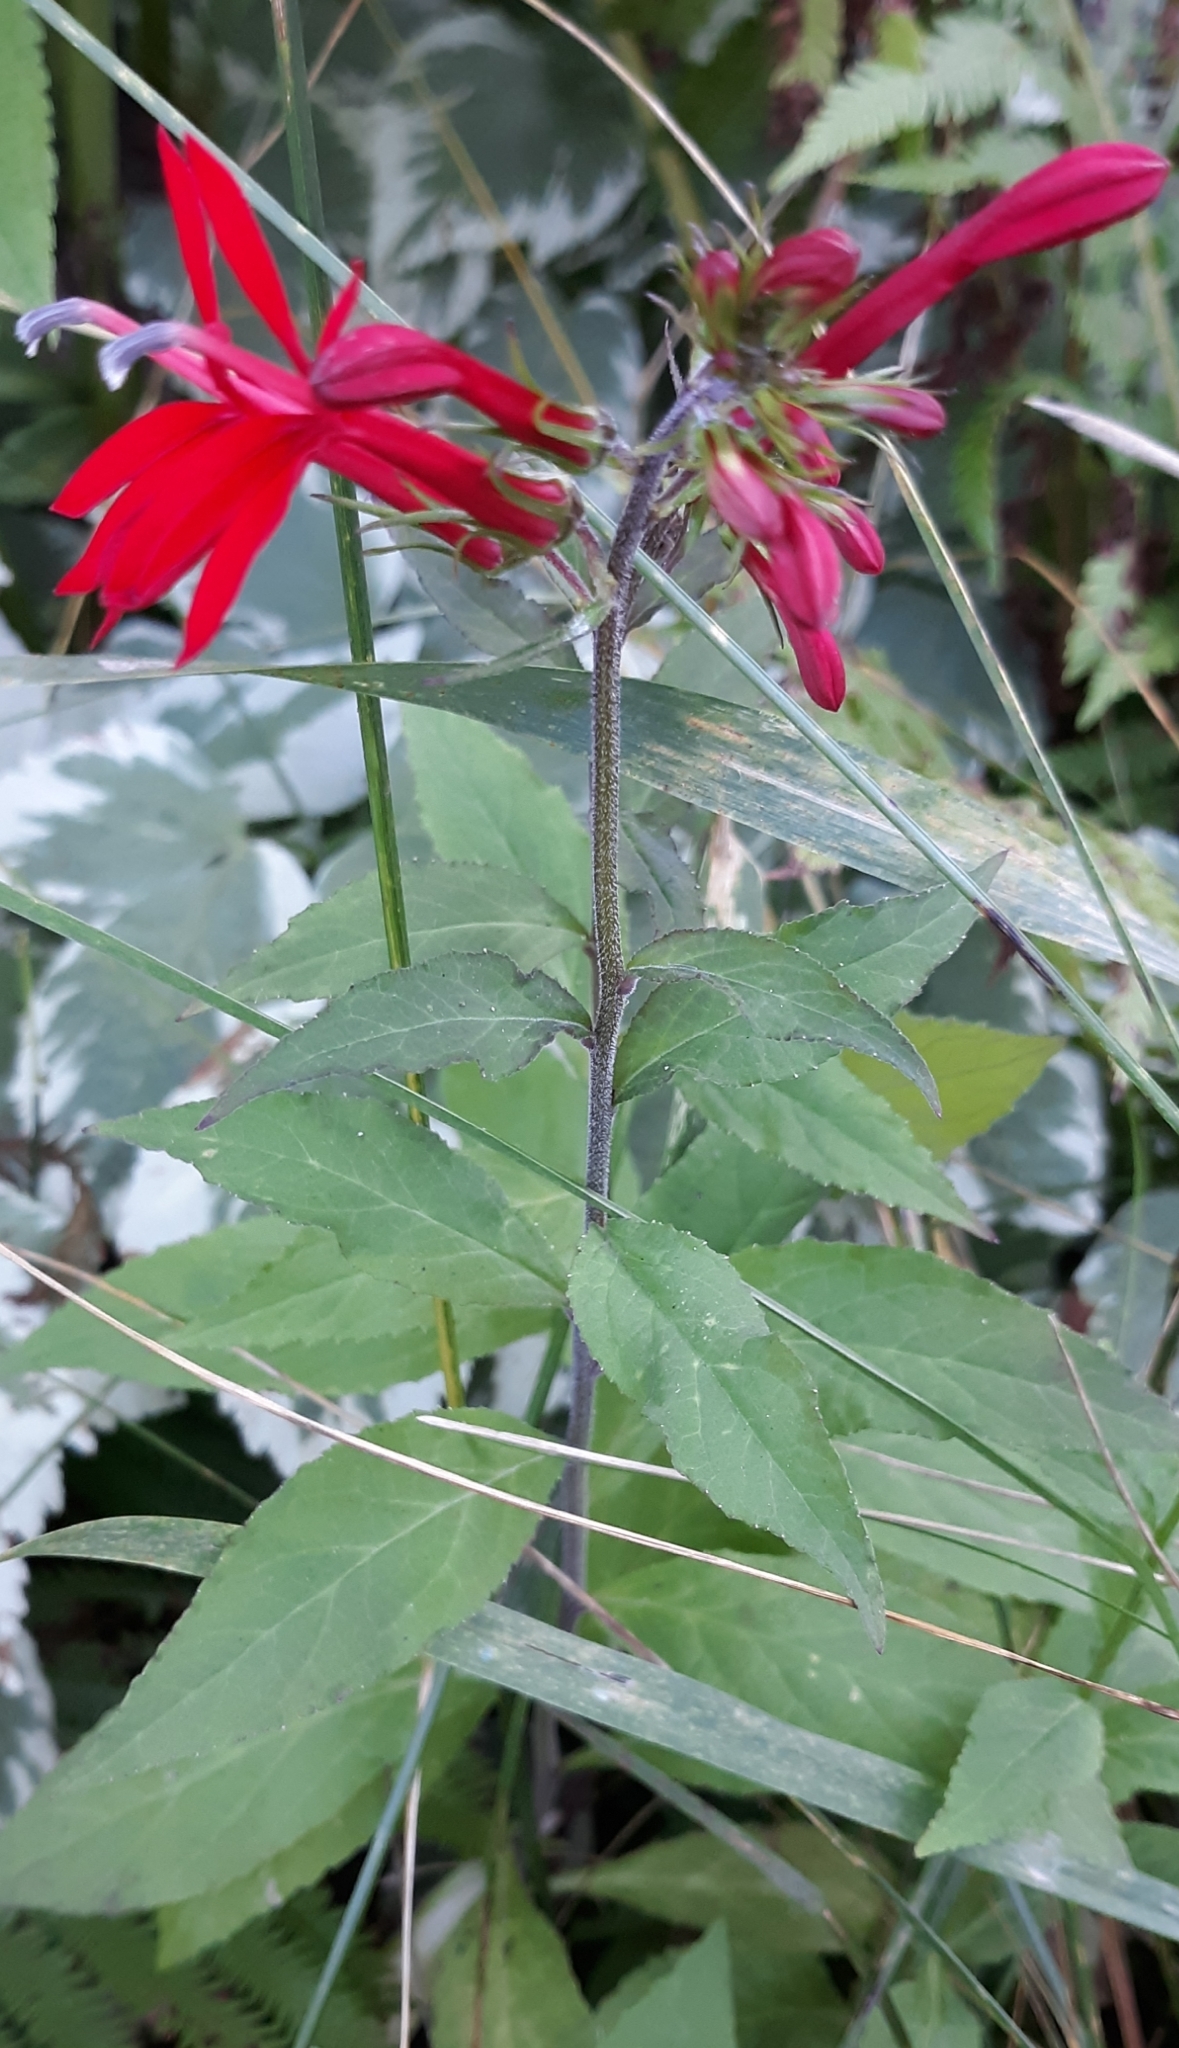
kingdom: Plantae
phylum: Tracheophyta
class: Magnoliopsida
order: Asterales
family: Campanulaceae
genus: Lobelia
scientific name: Lobelia cardinalis
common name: Cardinal flower
